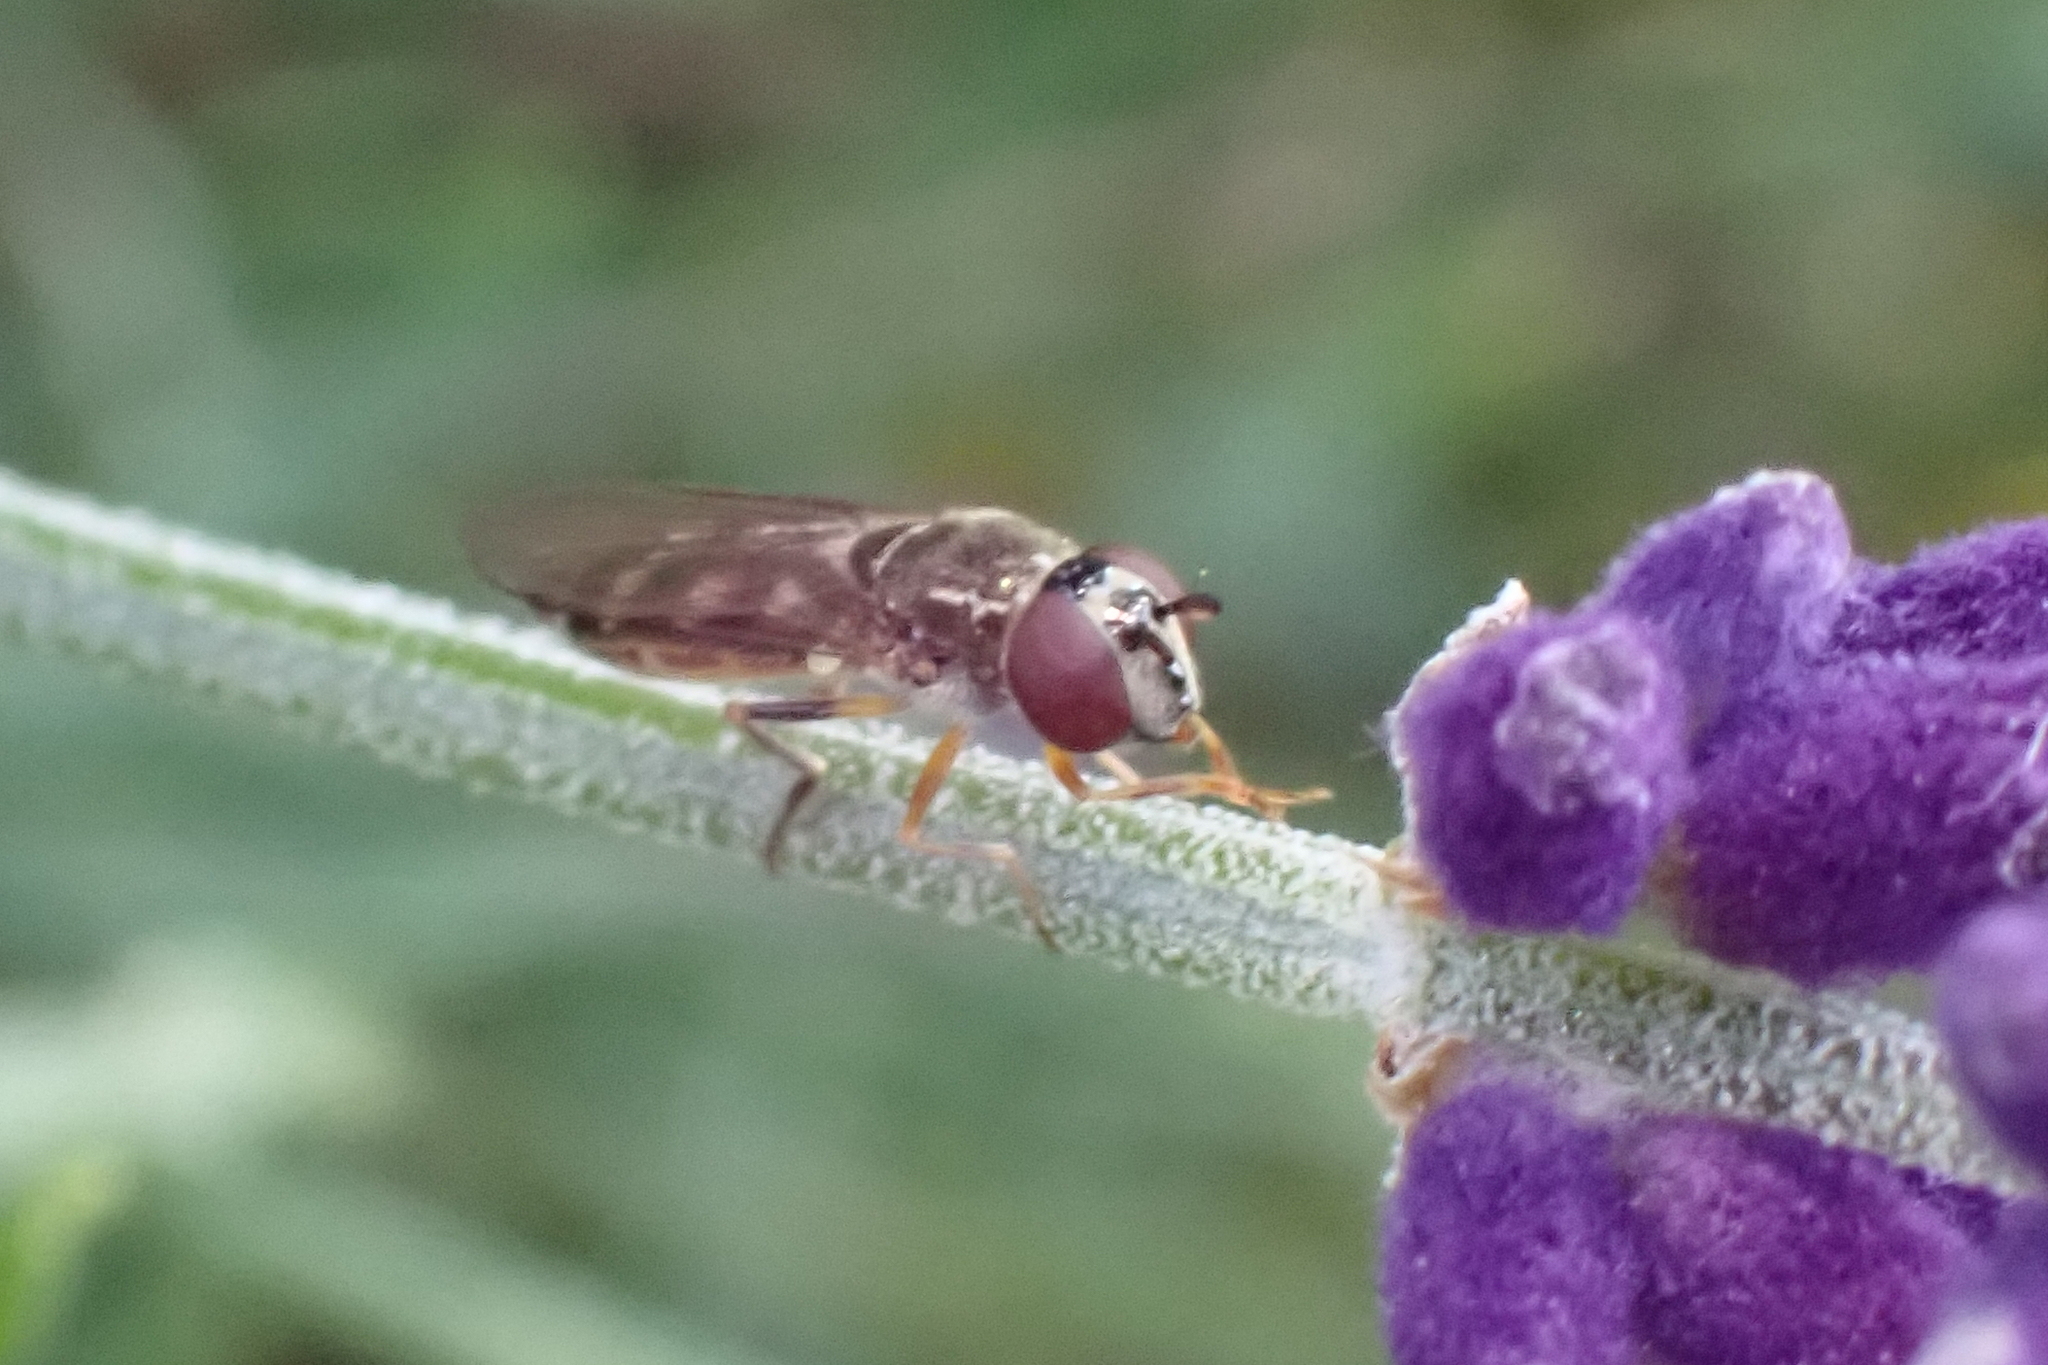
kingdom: Animalia
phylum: Arthropoda
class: Insecta
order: Diptera
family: Syrphidae
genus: Platycheirus
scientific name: Platycheirus
